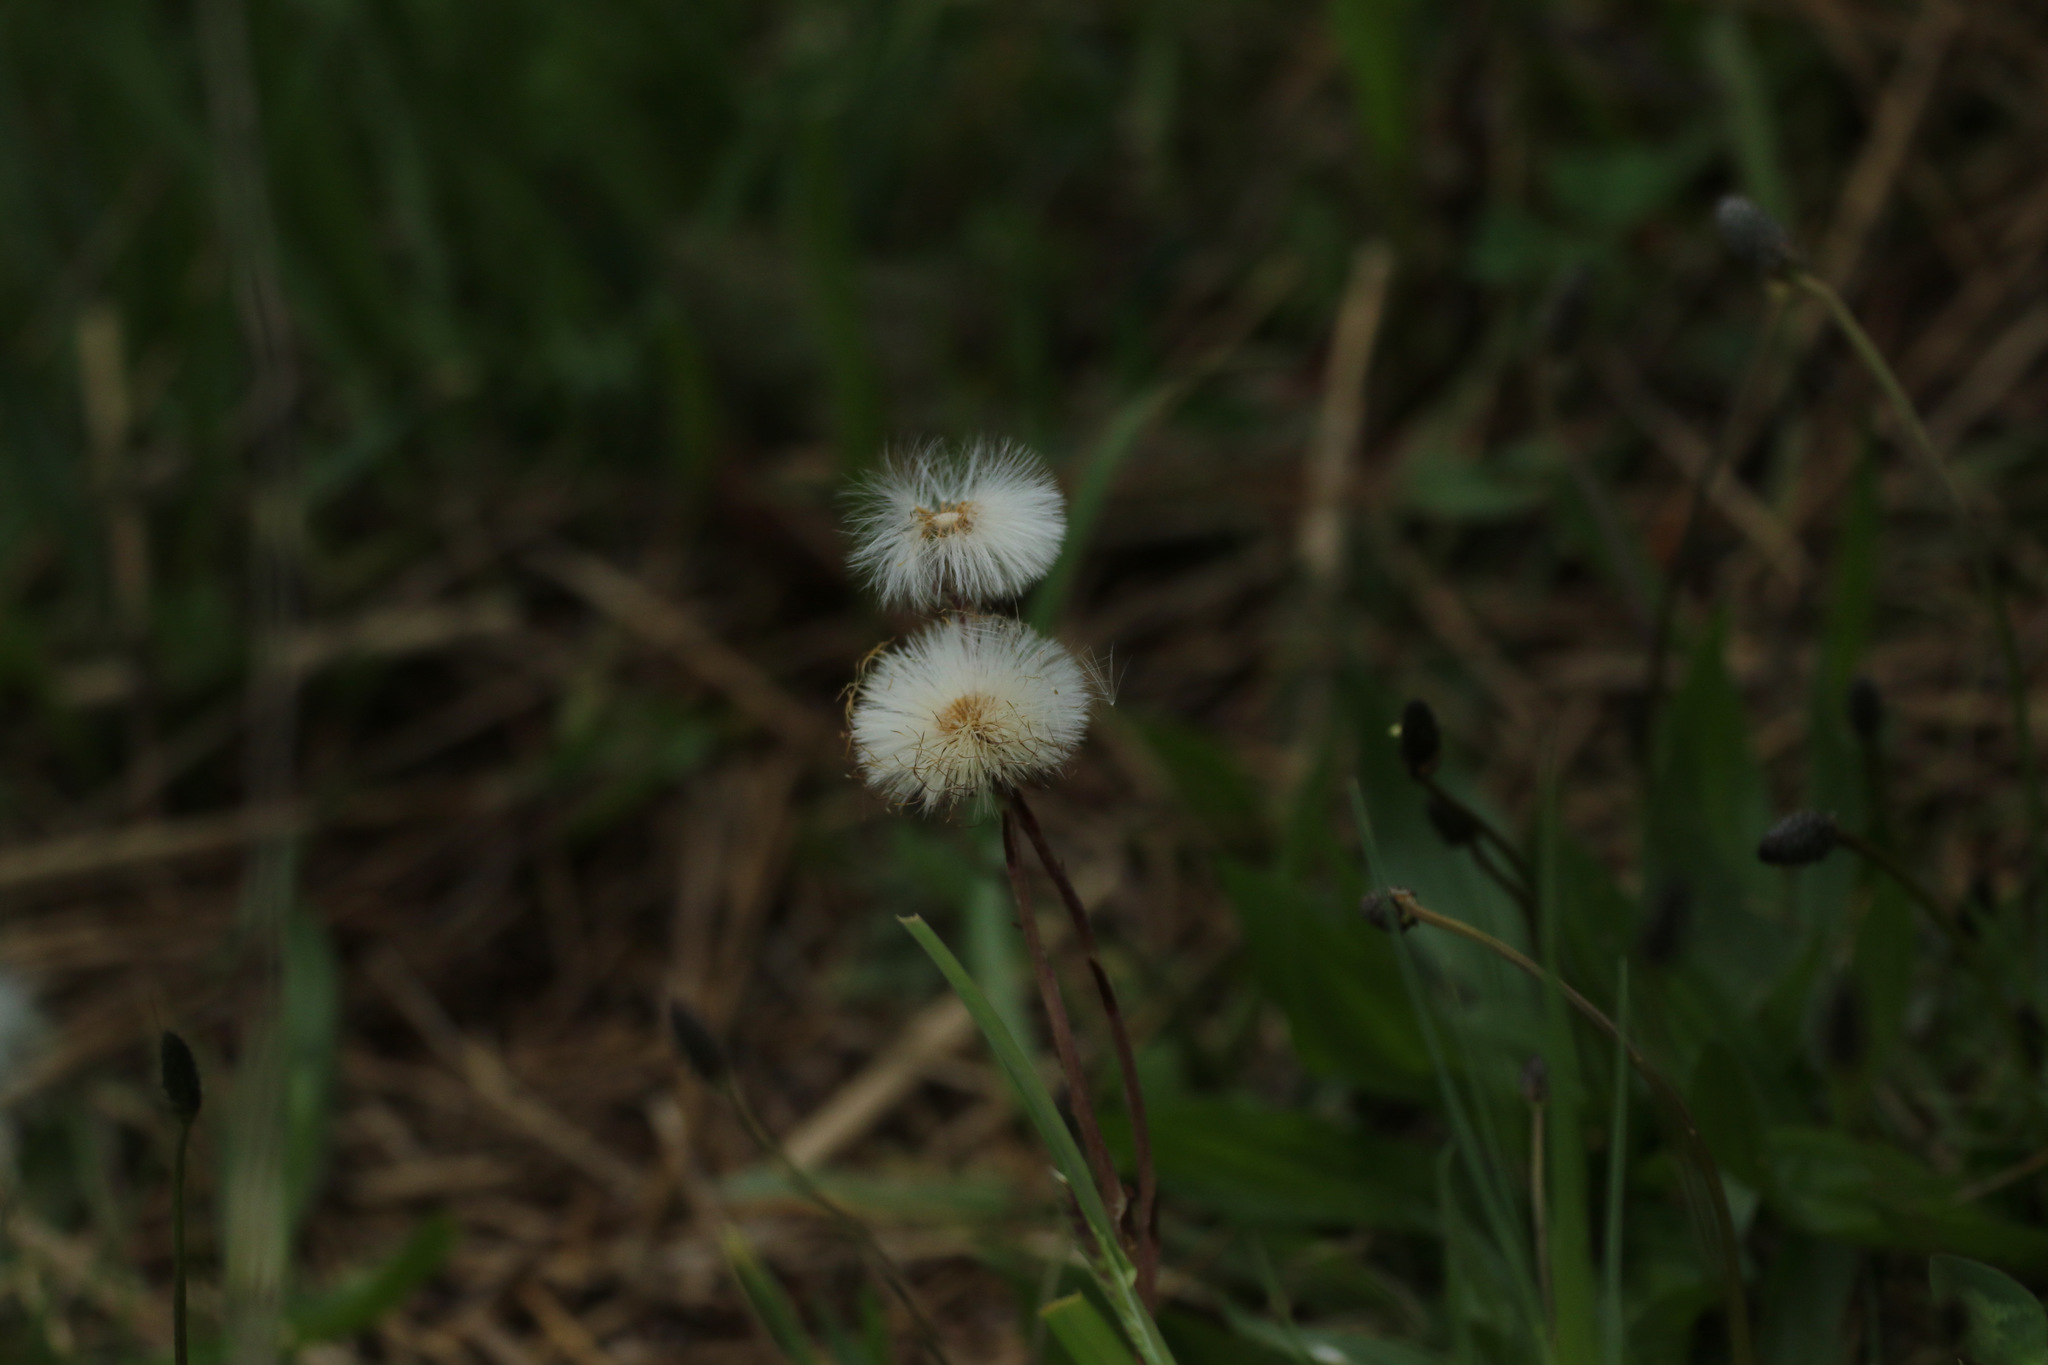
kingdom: Plantae
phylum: Tracheophyta
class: Magnoliopsida
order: Asterales
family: Asteraceae
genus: Tussilago
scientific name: Tussilago farfara
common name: Coltsfoot
